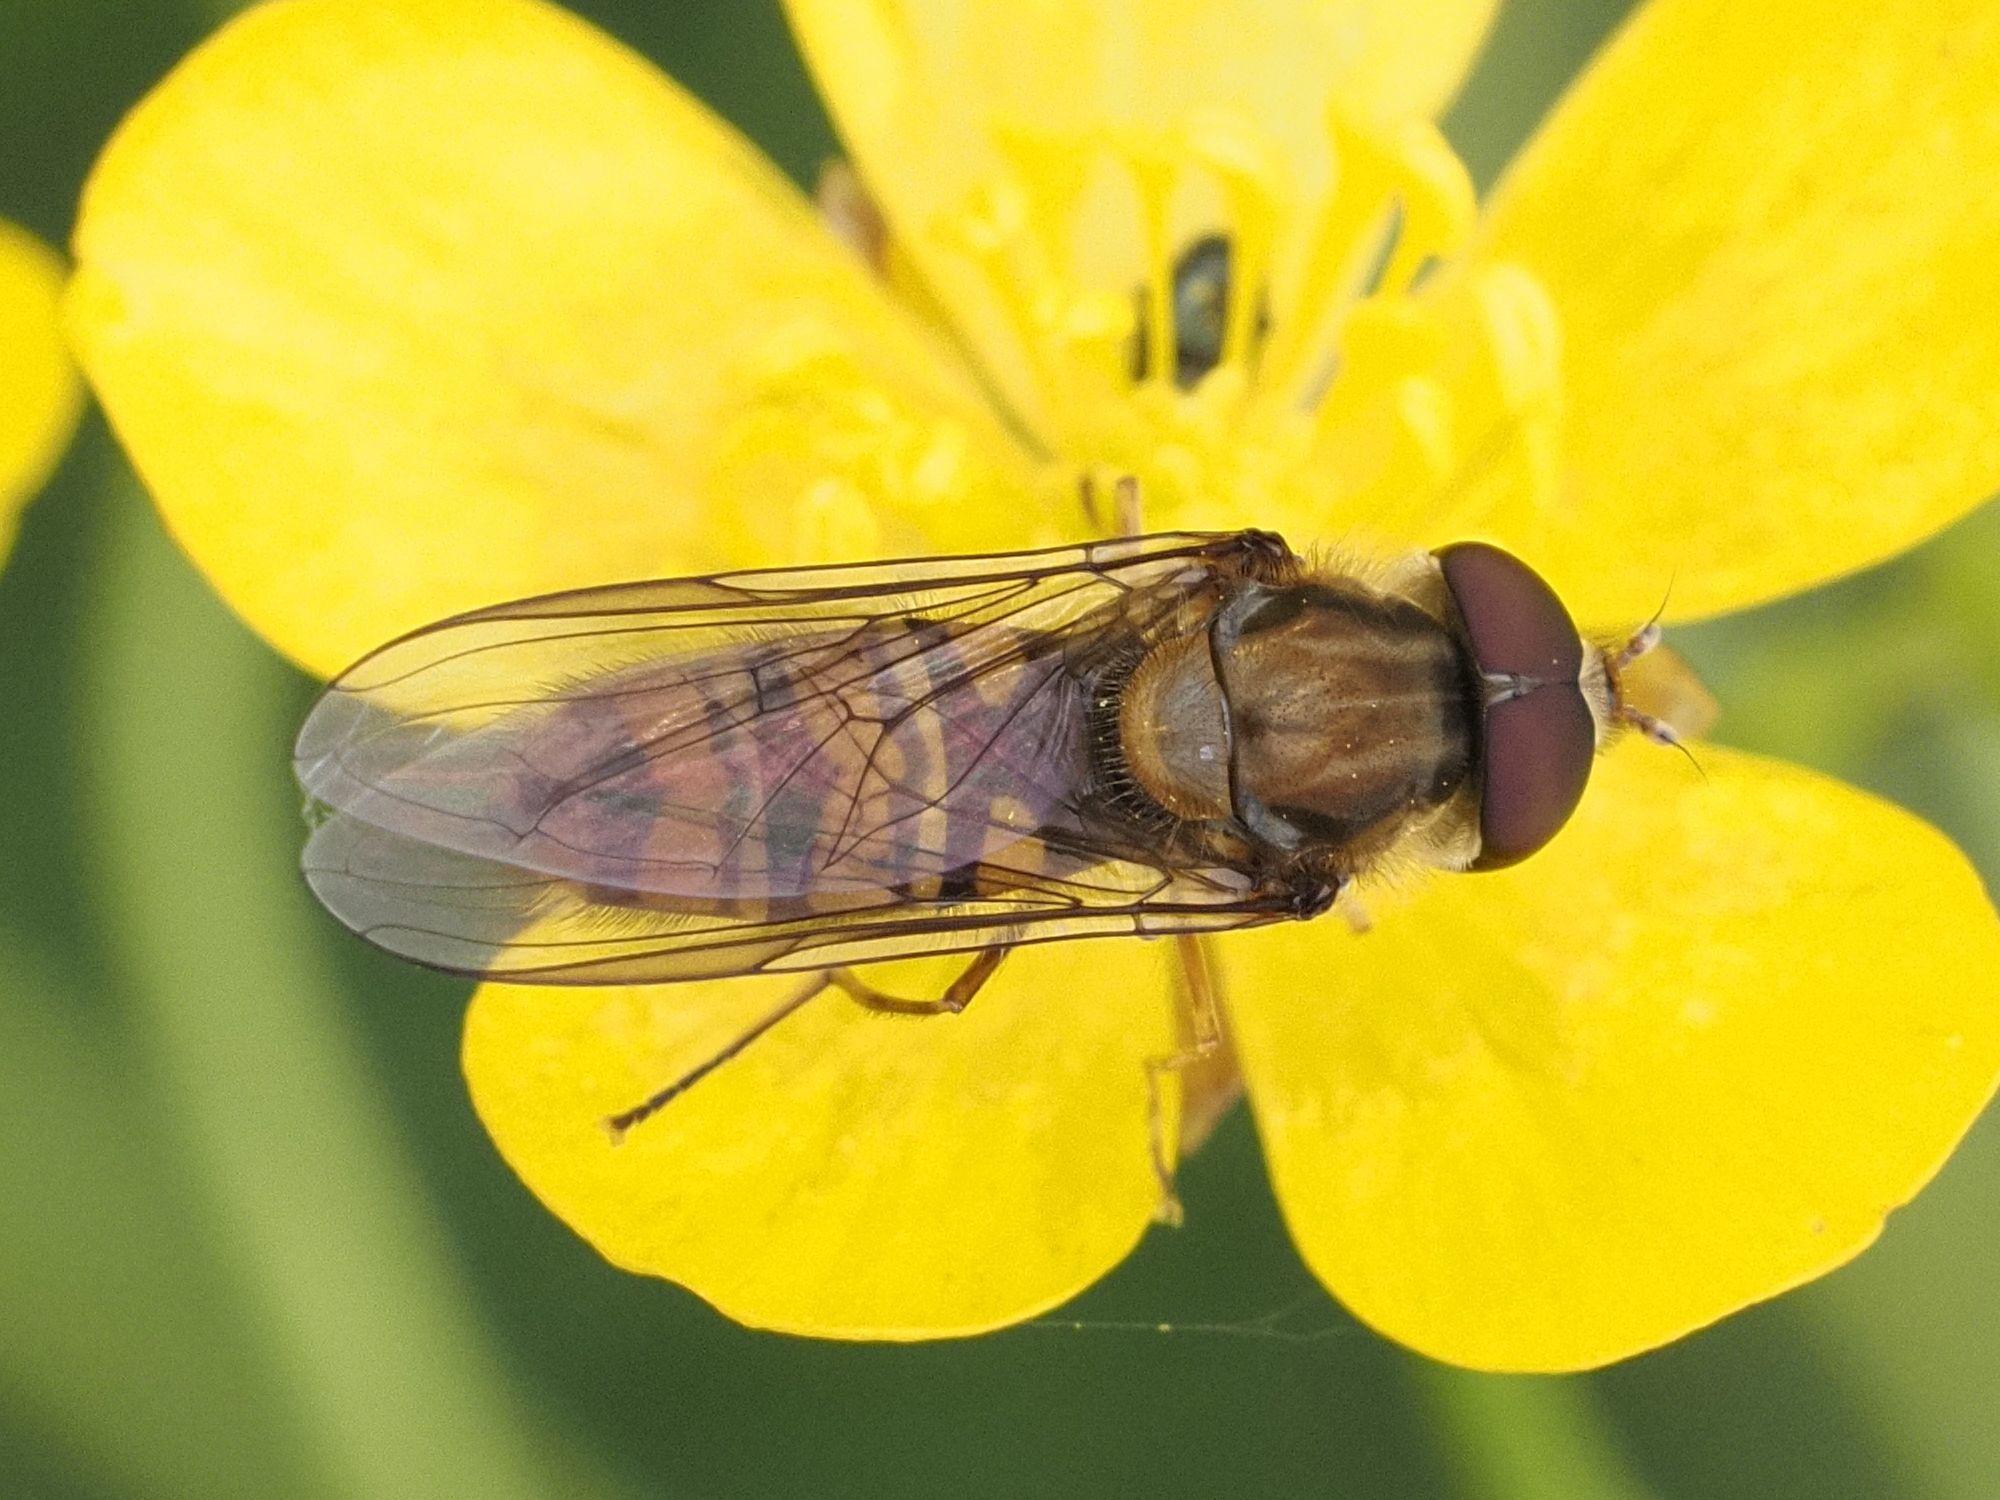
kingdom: Animalia
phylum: Arthropoda
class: Insecta
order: Diptera
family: Syrphidae
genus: Episyrphus
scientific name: Episyrphus balteatus
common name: Marmalade hoverfly
